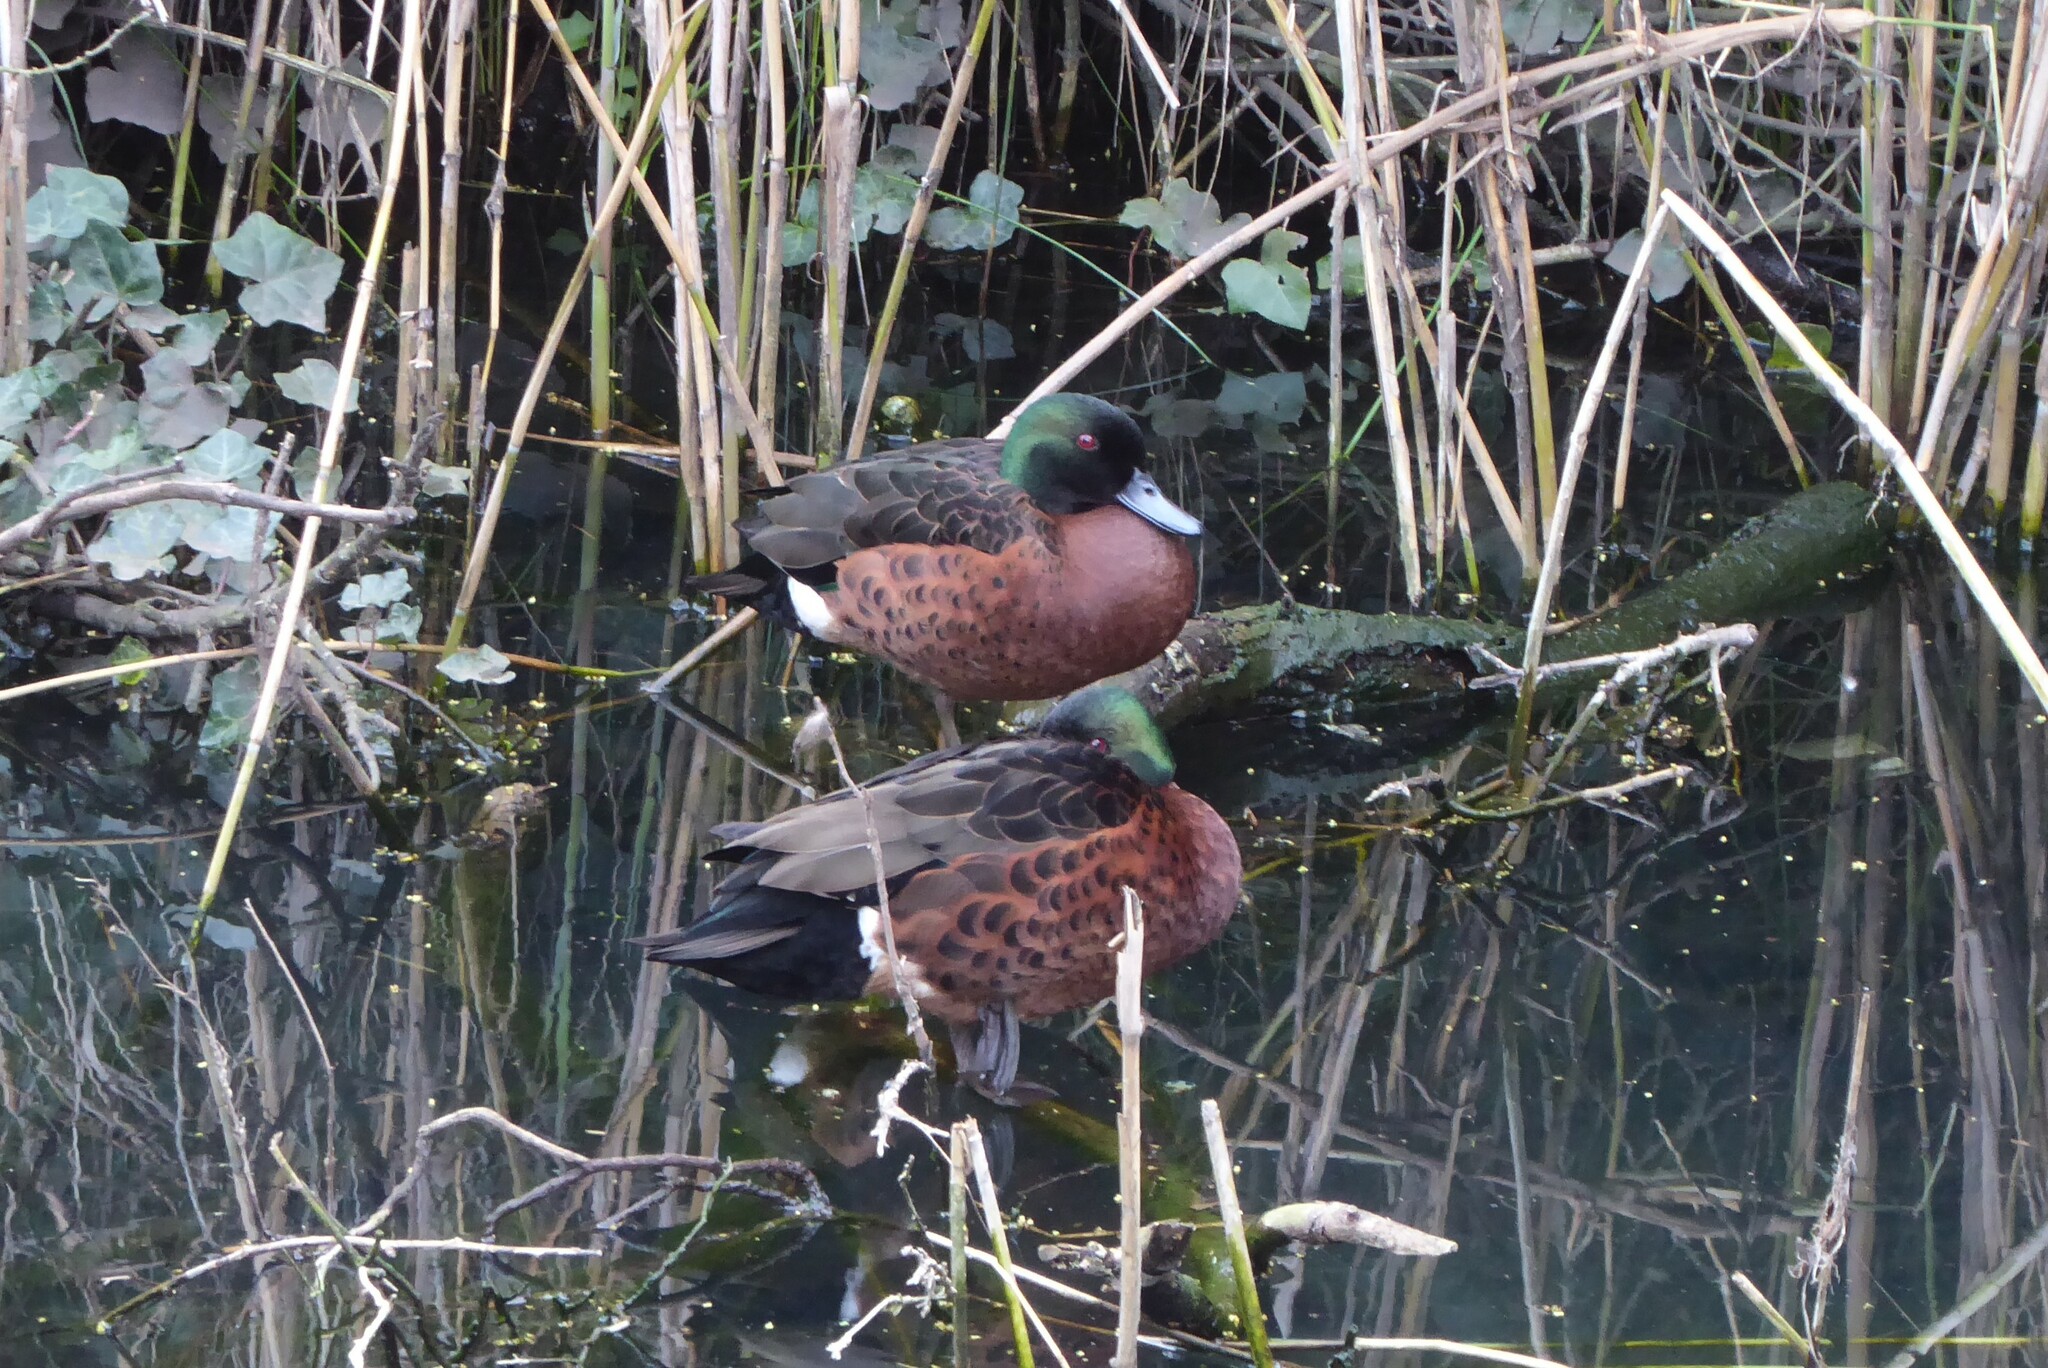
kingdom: Animalia
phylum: Chordata
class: Aves
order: Anseriformes
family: Anatidae
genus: Anas
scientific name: Anas castanea
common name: Chestnut teal
